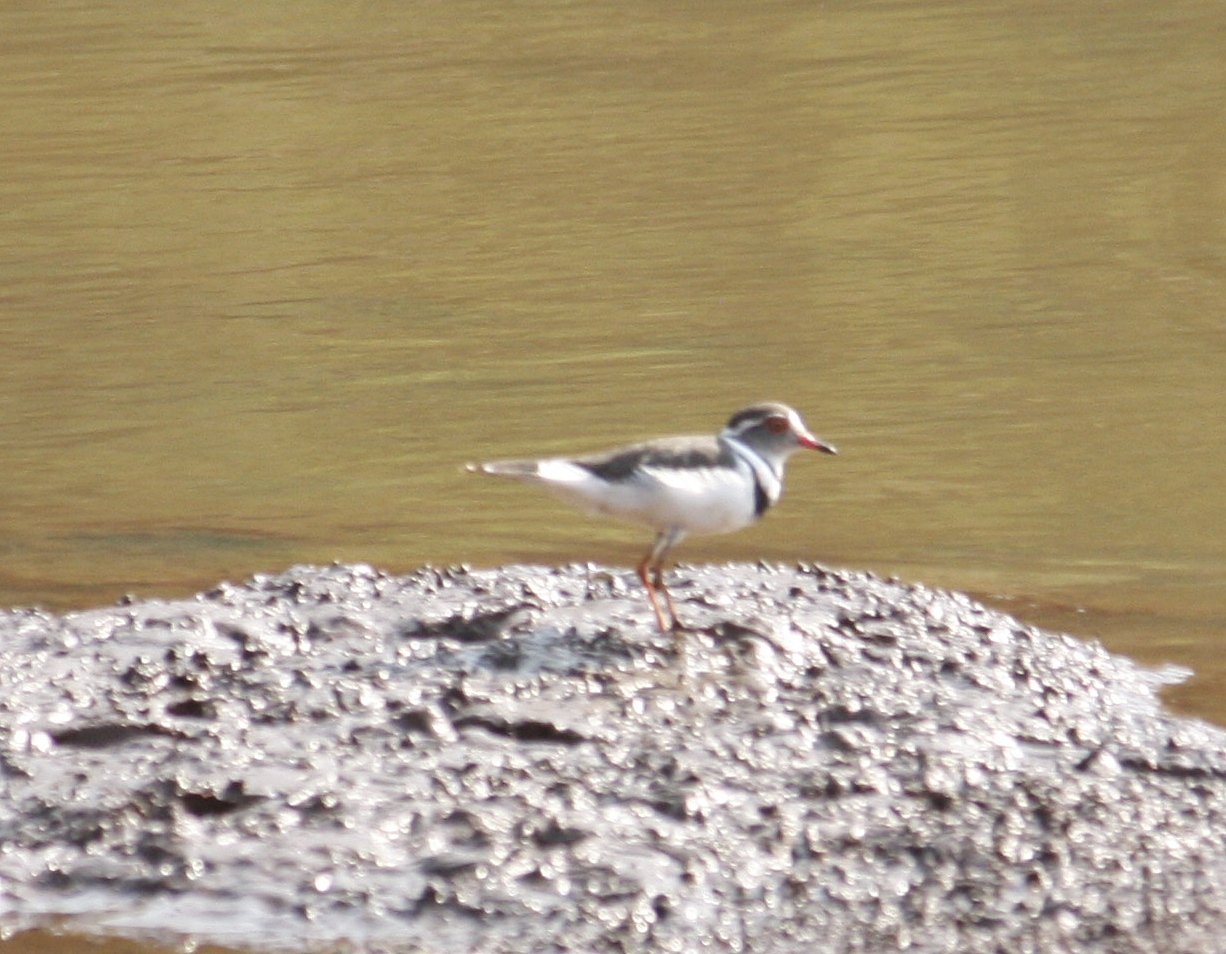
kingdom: Animalia
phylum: Chordata
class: Aves
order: Charadriiformes
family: Charadriidae
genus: Charadrius
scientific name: Charadrius tricollaris
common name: Three-banded plover
